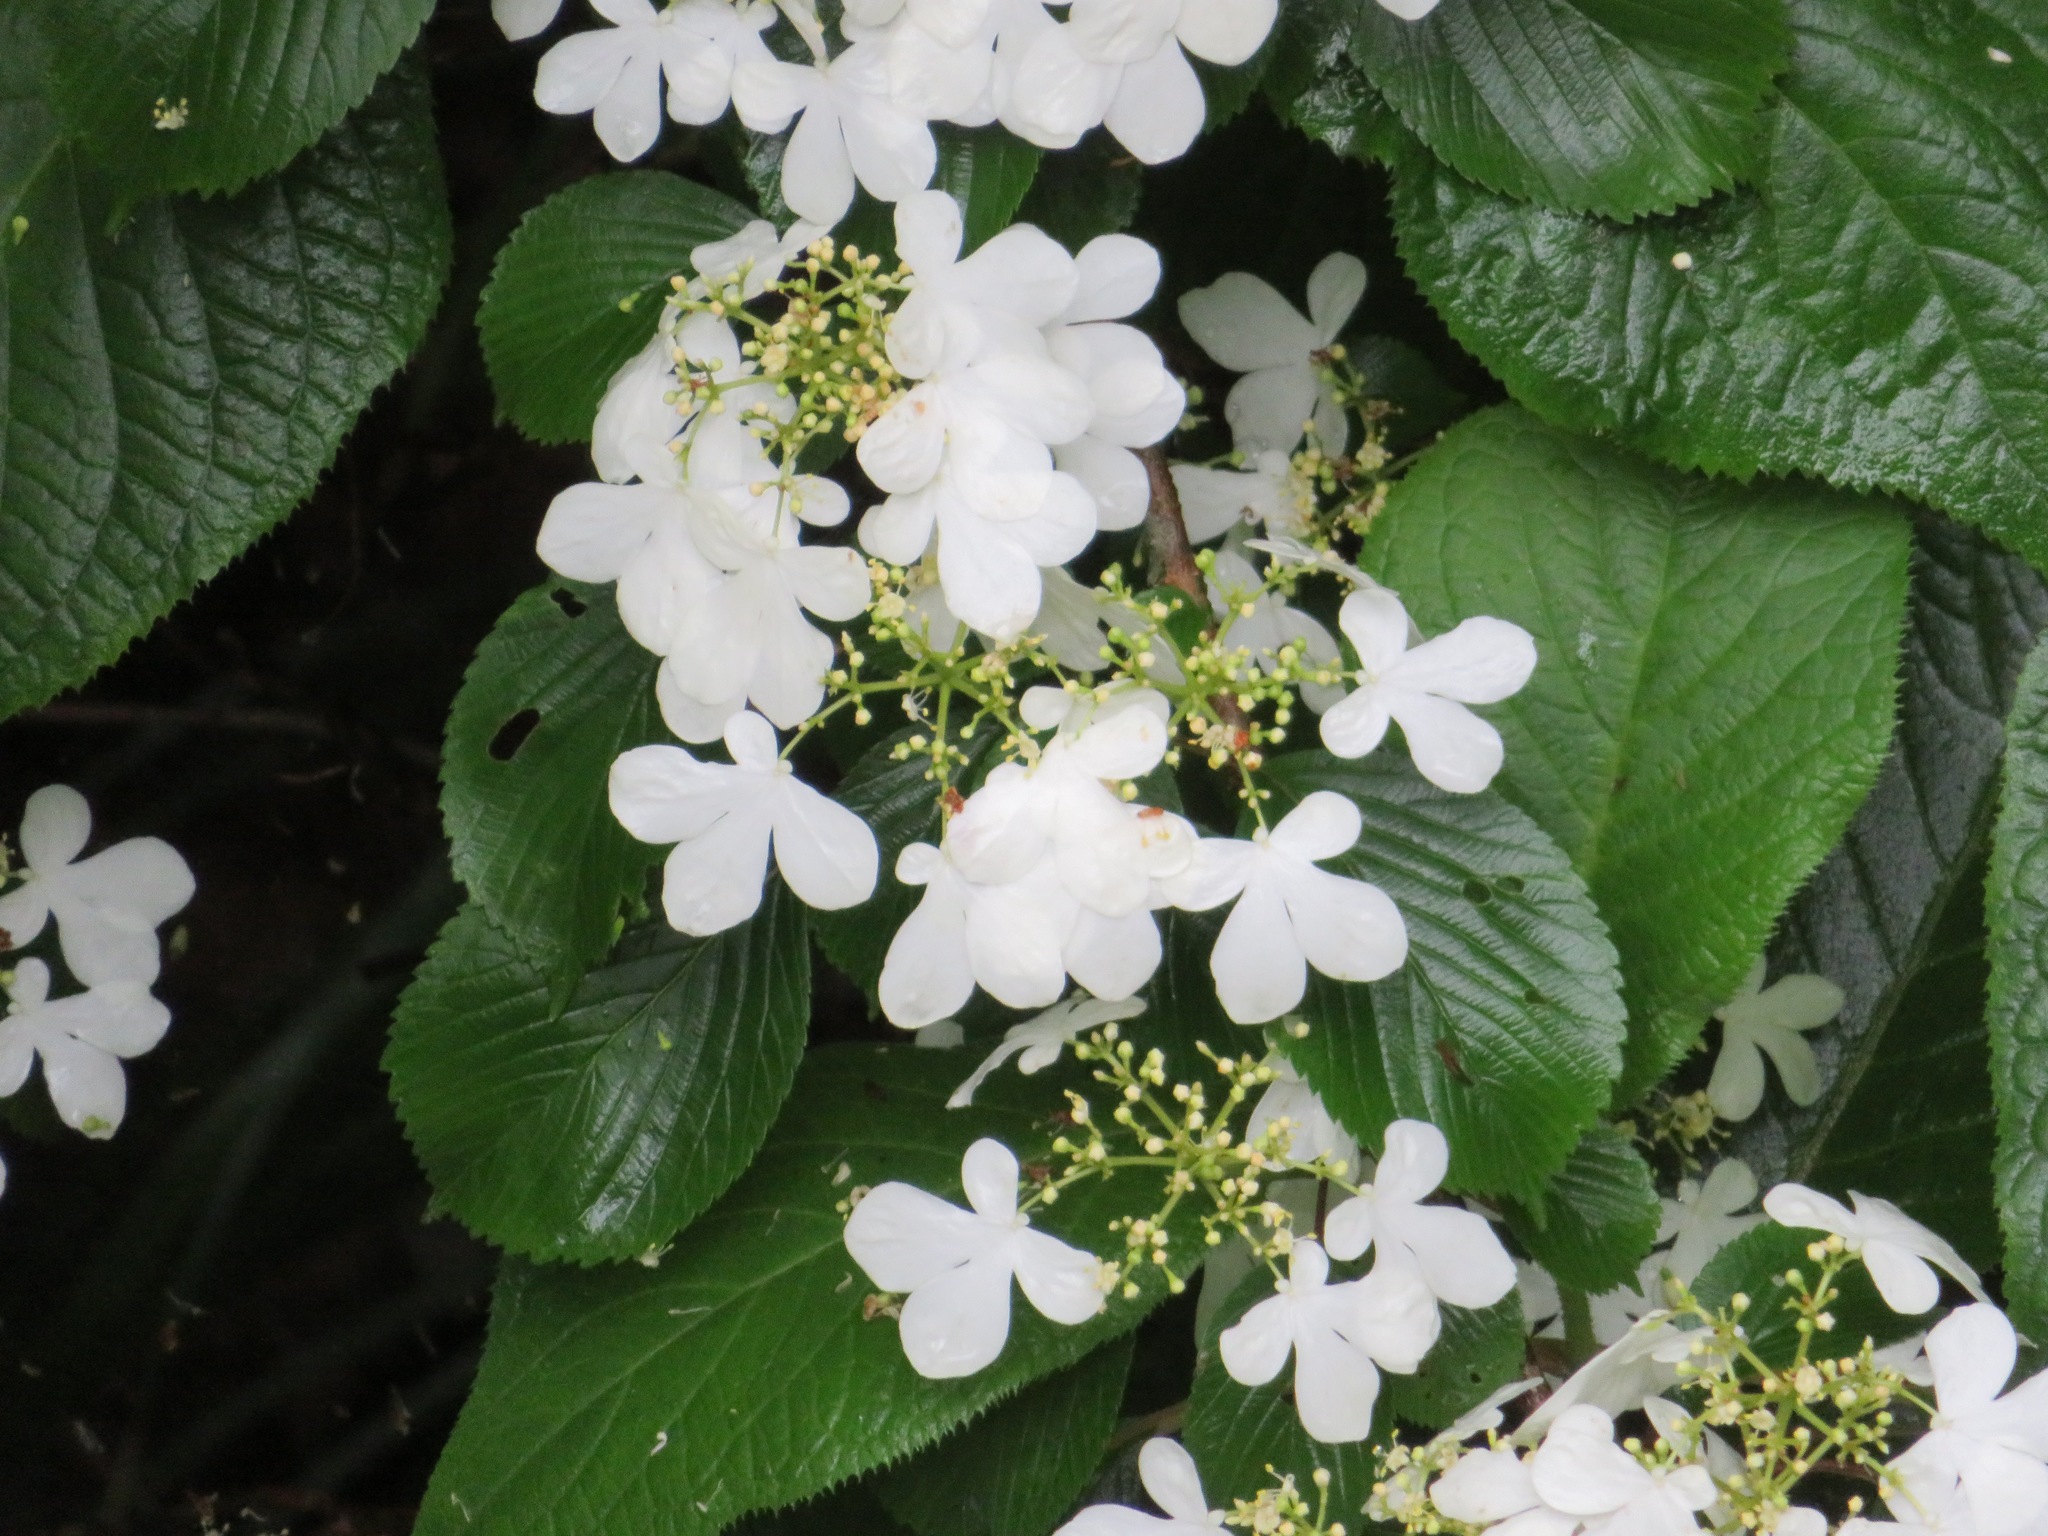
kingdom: Plantae
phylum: Tracheophyta
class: Magnoliopsida
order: Dipsacales
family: Viburnaceae
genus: Viburnum
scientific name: Viburnum plicatum
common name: Japanese snowball
